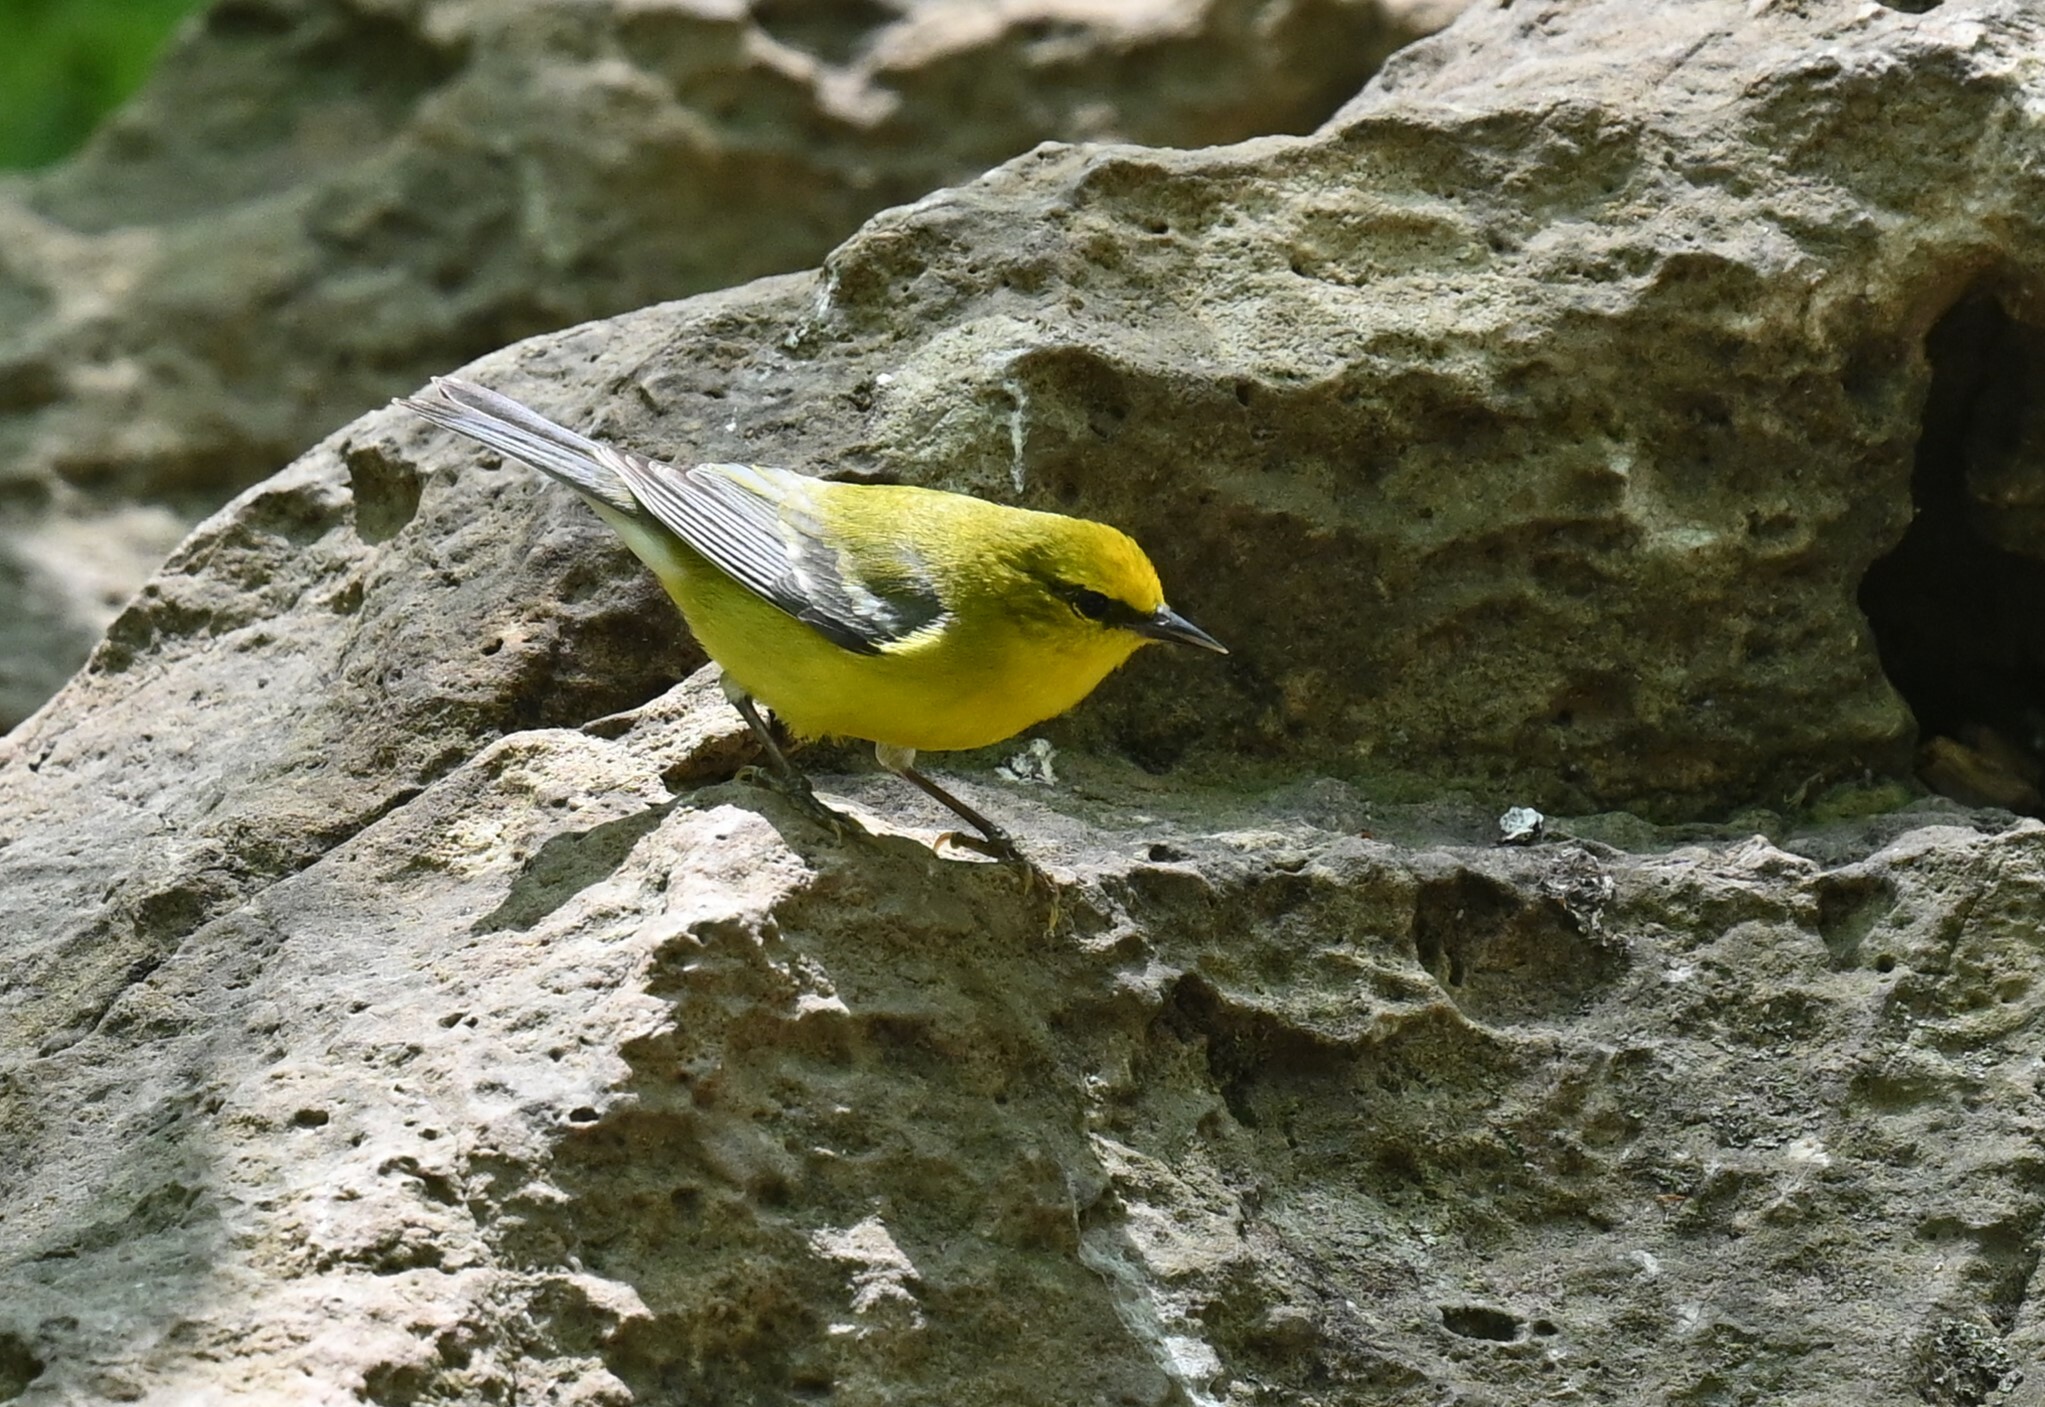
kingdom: Animalia
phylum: Chordata
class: Aves
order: Passeriformes
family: Parulidae
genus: Vermivora
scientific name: Vermivora cyanoptera
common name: Blue-winged warbler
